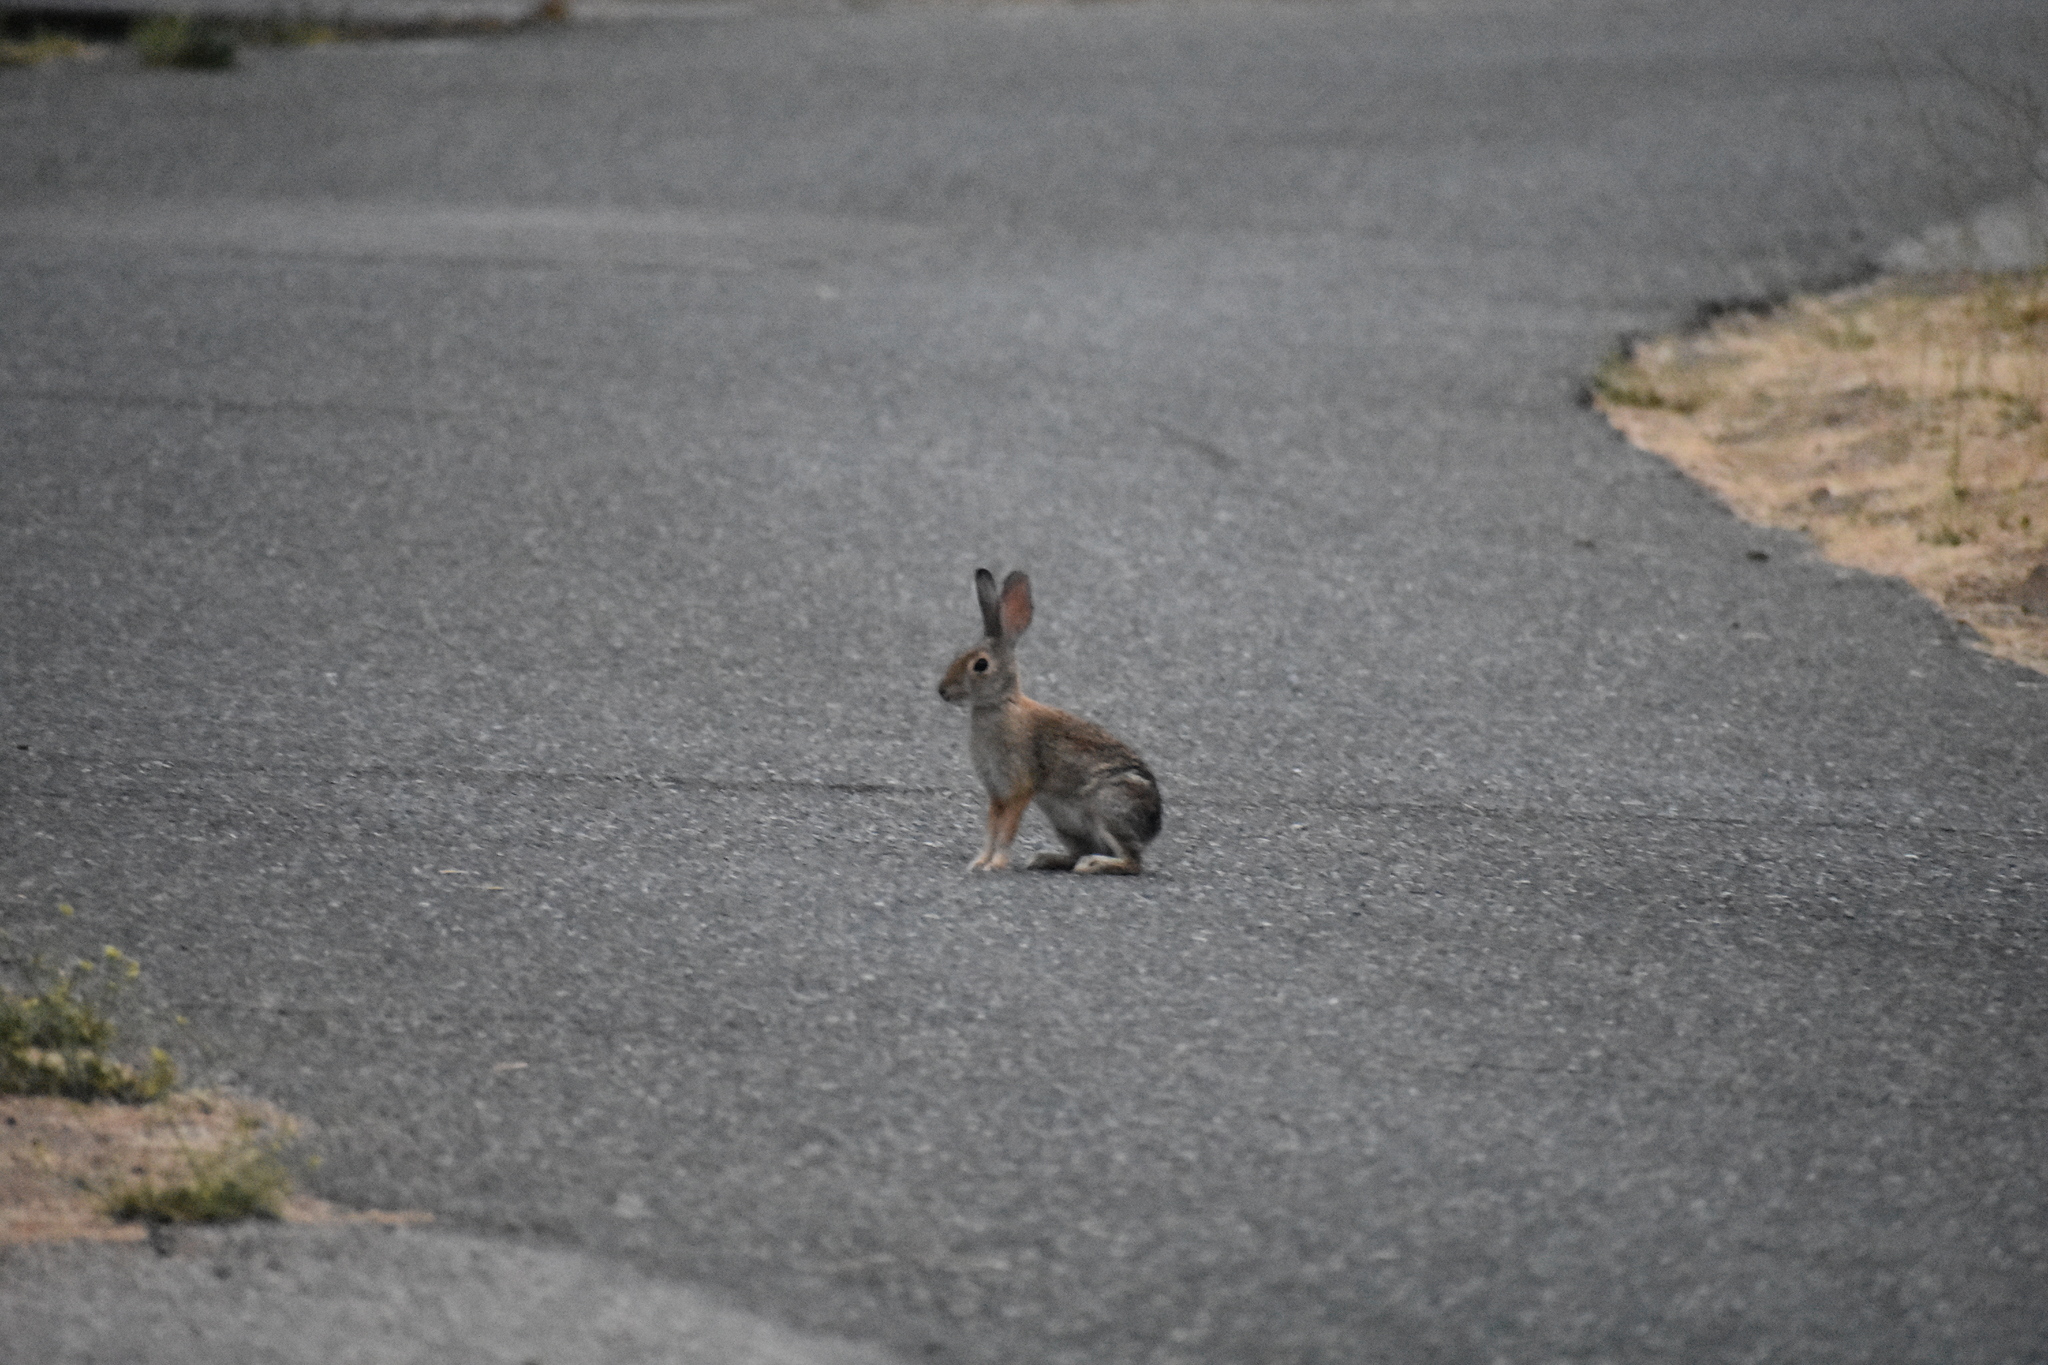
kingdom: Animalia
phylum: Chordata
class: Mammalia
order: Lagomorpha
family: Leporidae
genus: Sylvilagus
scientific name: Sylvilagus audubonii
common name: Desert cottontail
